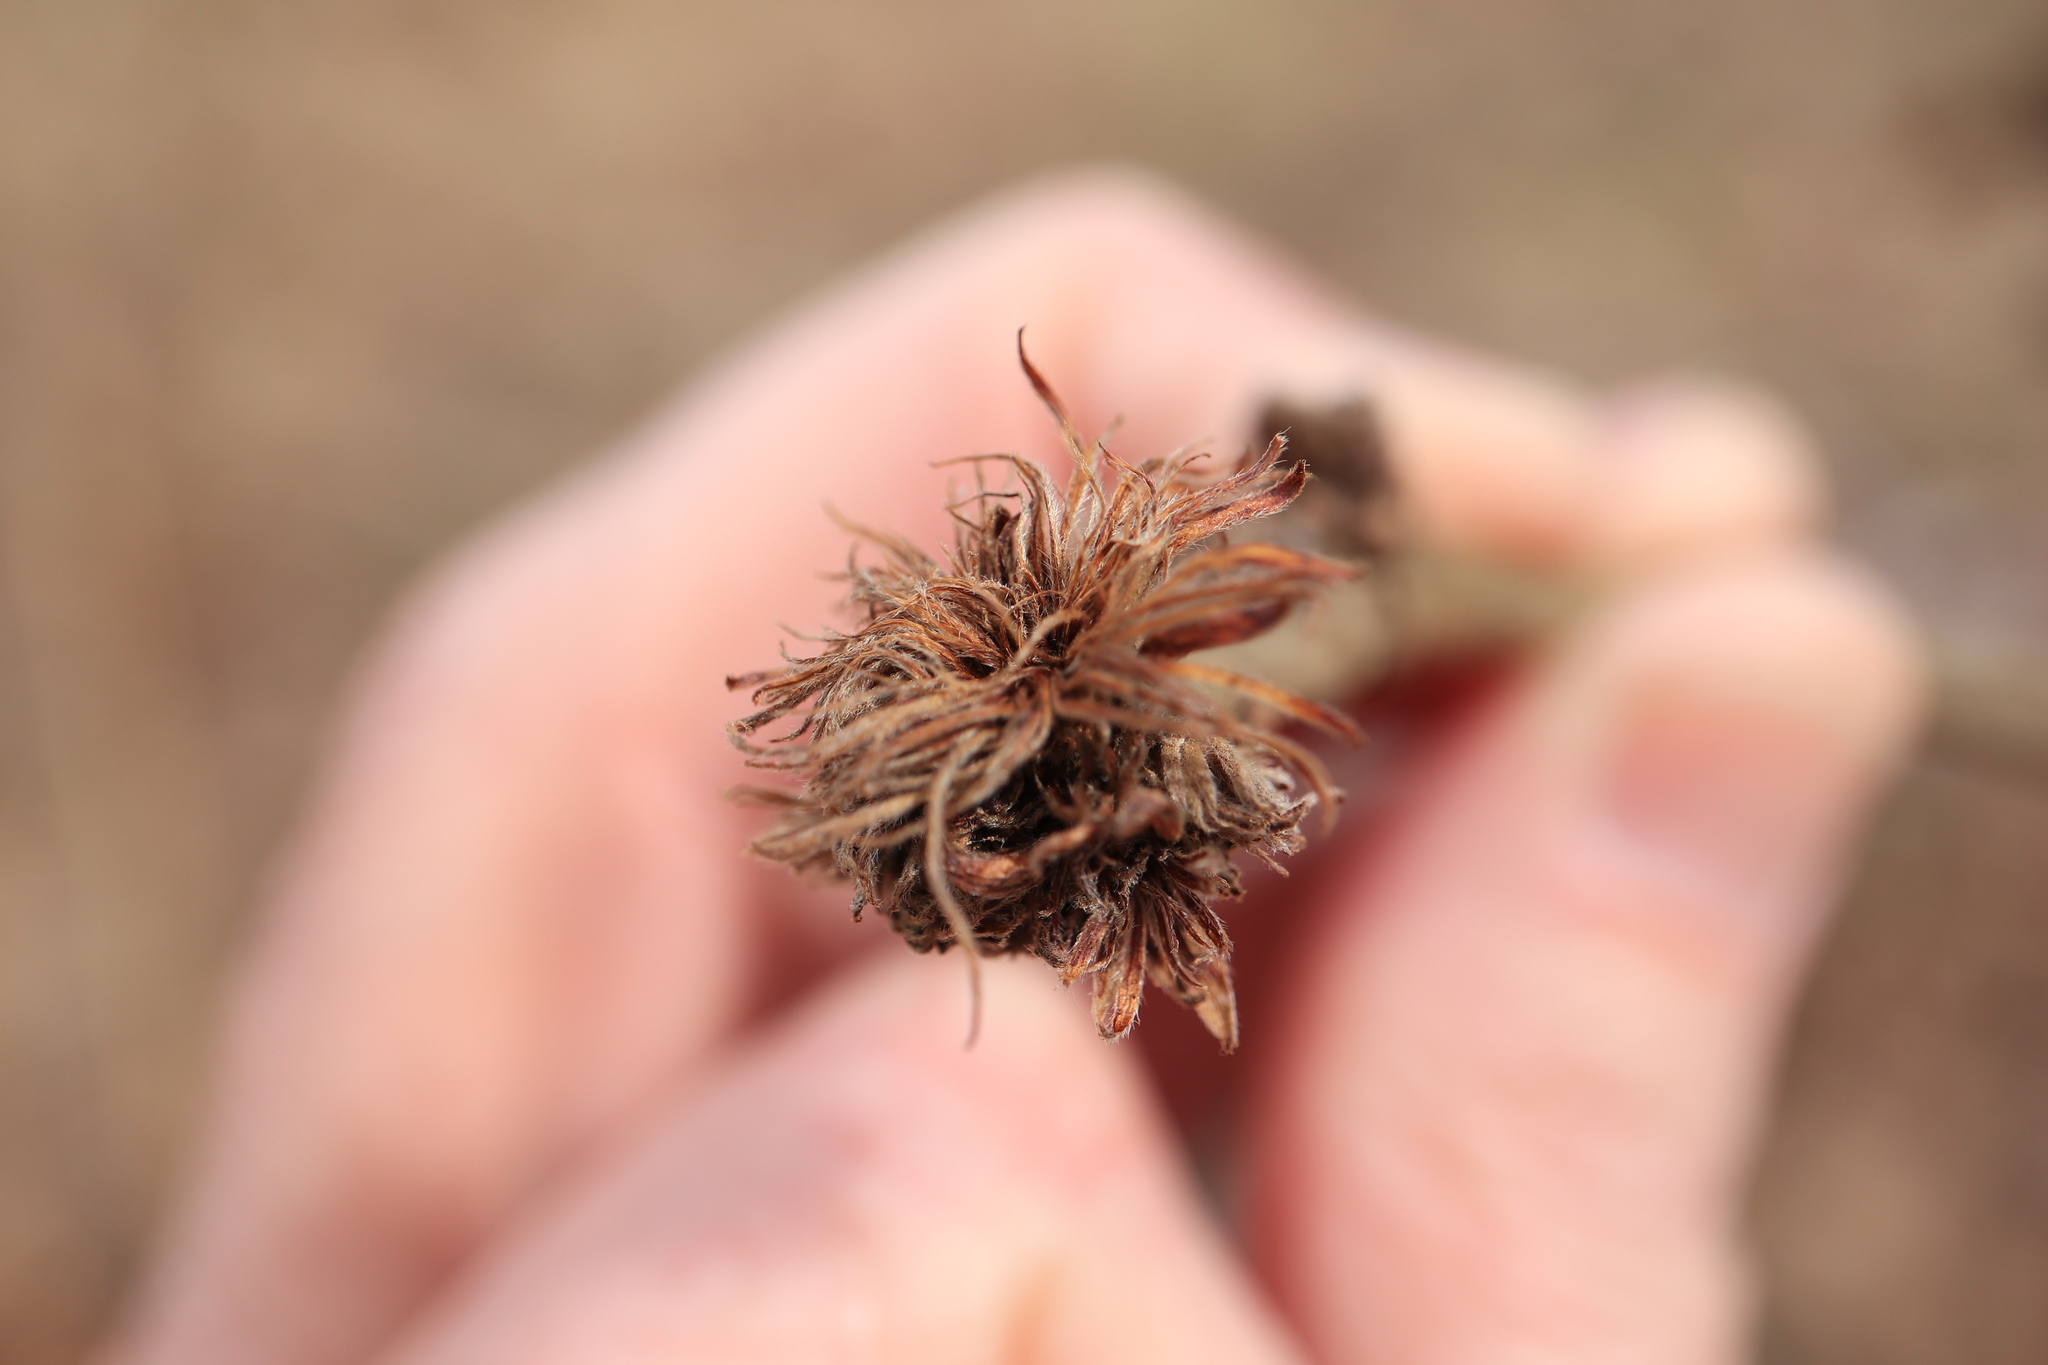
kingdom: Animalia
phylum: Arthropoda
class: Insecta
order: Hymenoptera
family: Cynipidae
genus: Andricus
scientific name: Andricus
